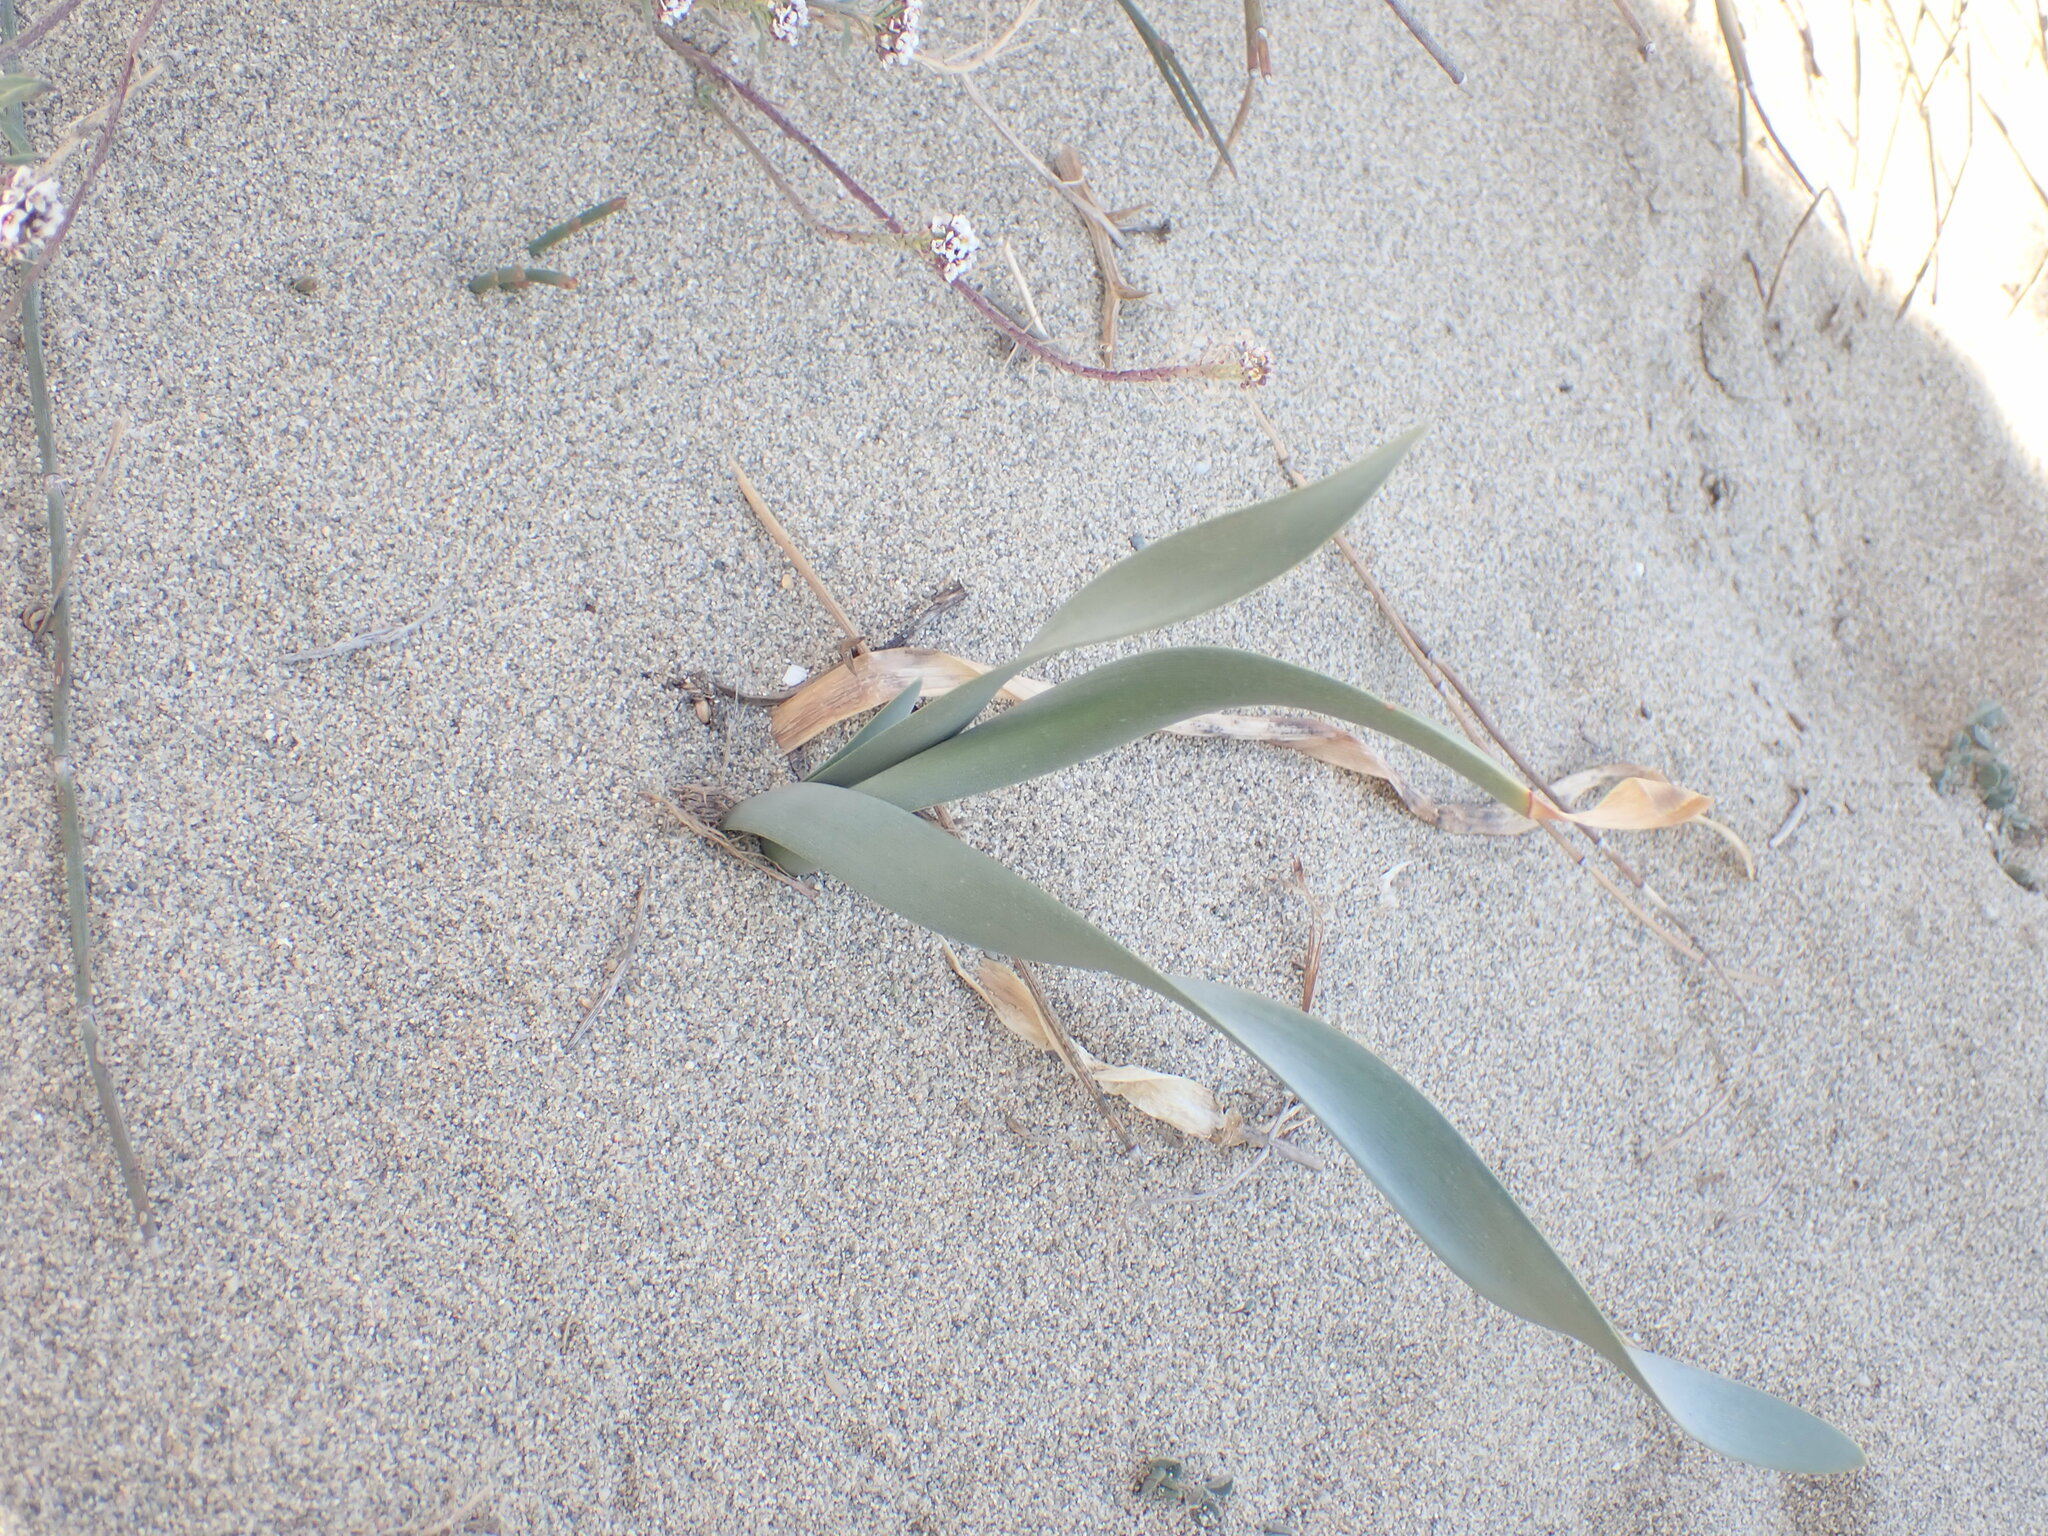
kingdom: Plantae
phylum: Tracheophyta
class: Liliopsida
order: Asparagales
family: Amaryllidaceae
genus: Pancratium
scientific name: Pancratium maritimum
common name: Sea-daffodil
